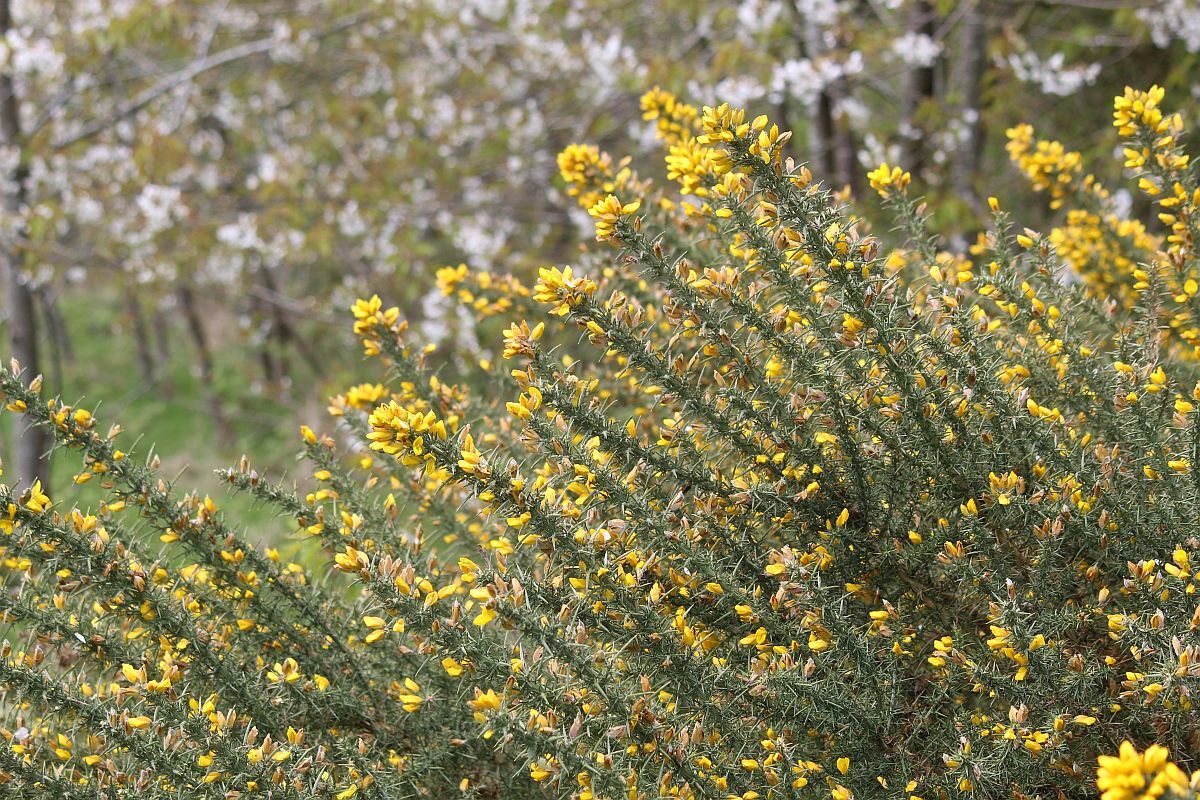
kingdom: Plantae
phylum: Tracheophyta
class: Magnoliopsida
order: Fabales
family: Fabaceae
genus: Ulex
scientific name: Ulex europaeus
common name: Common gorse
